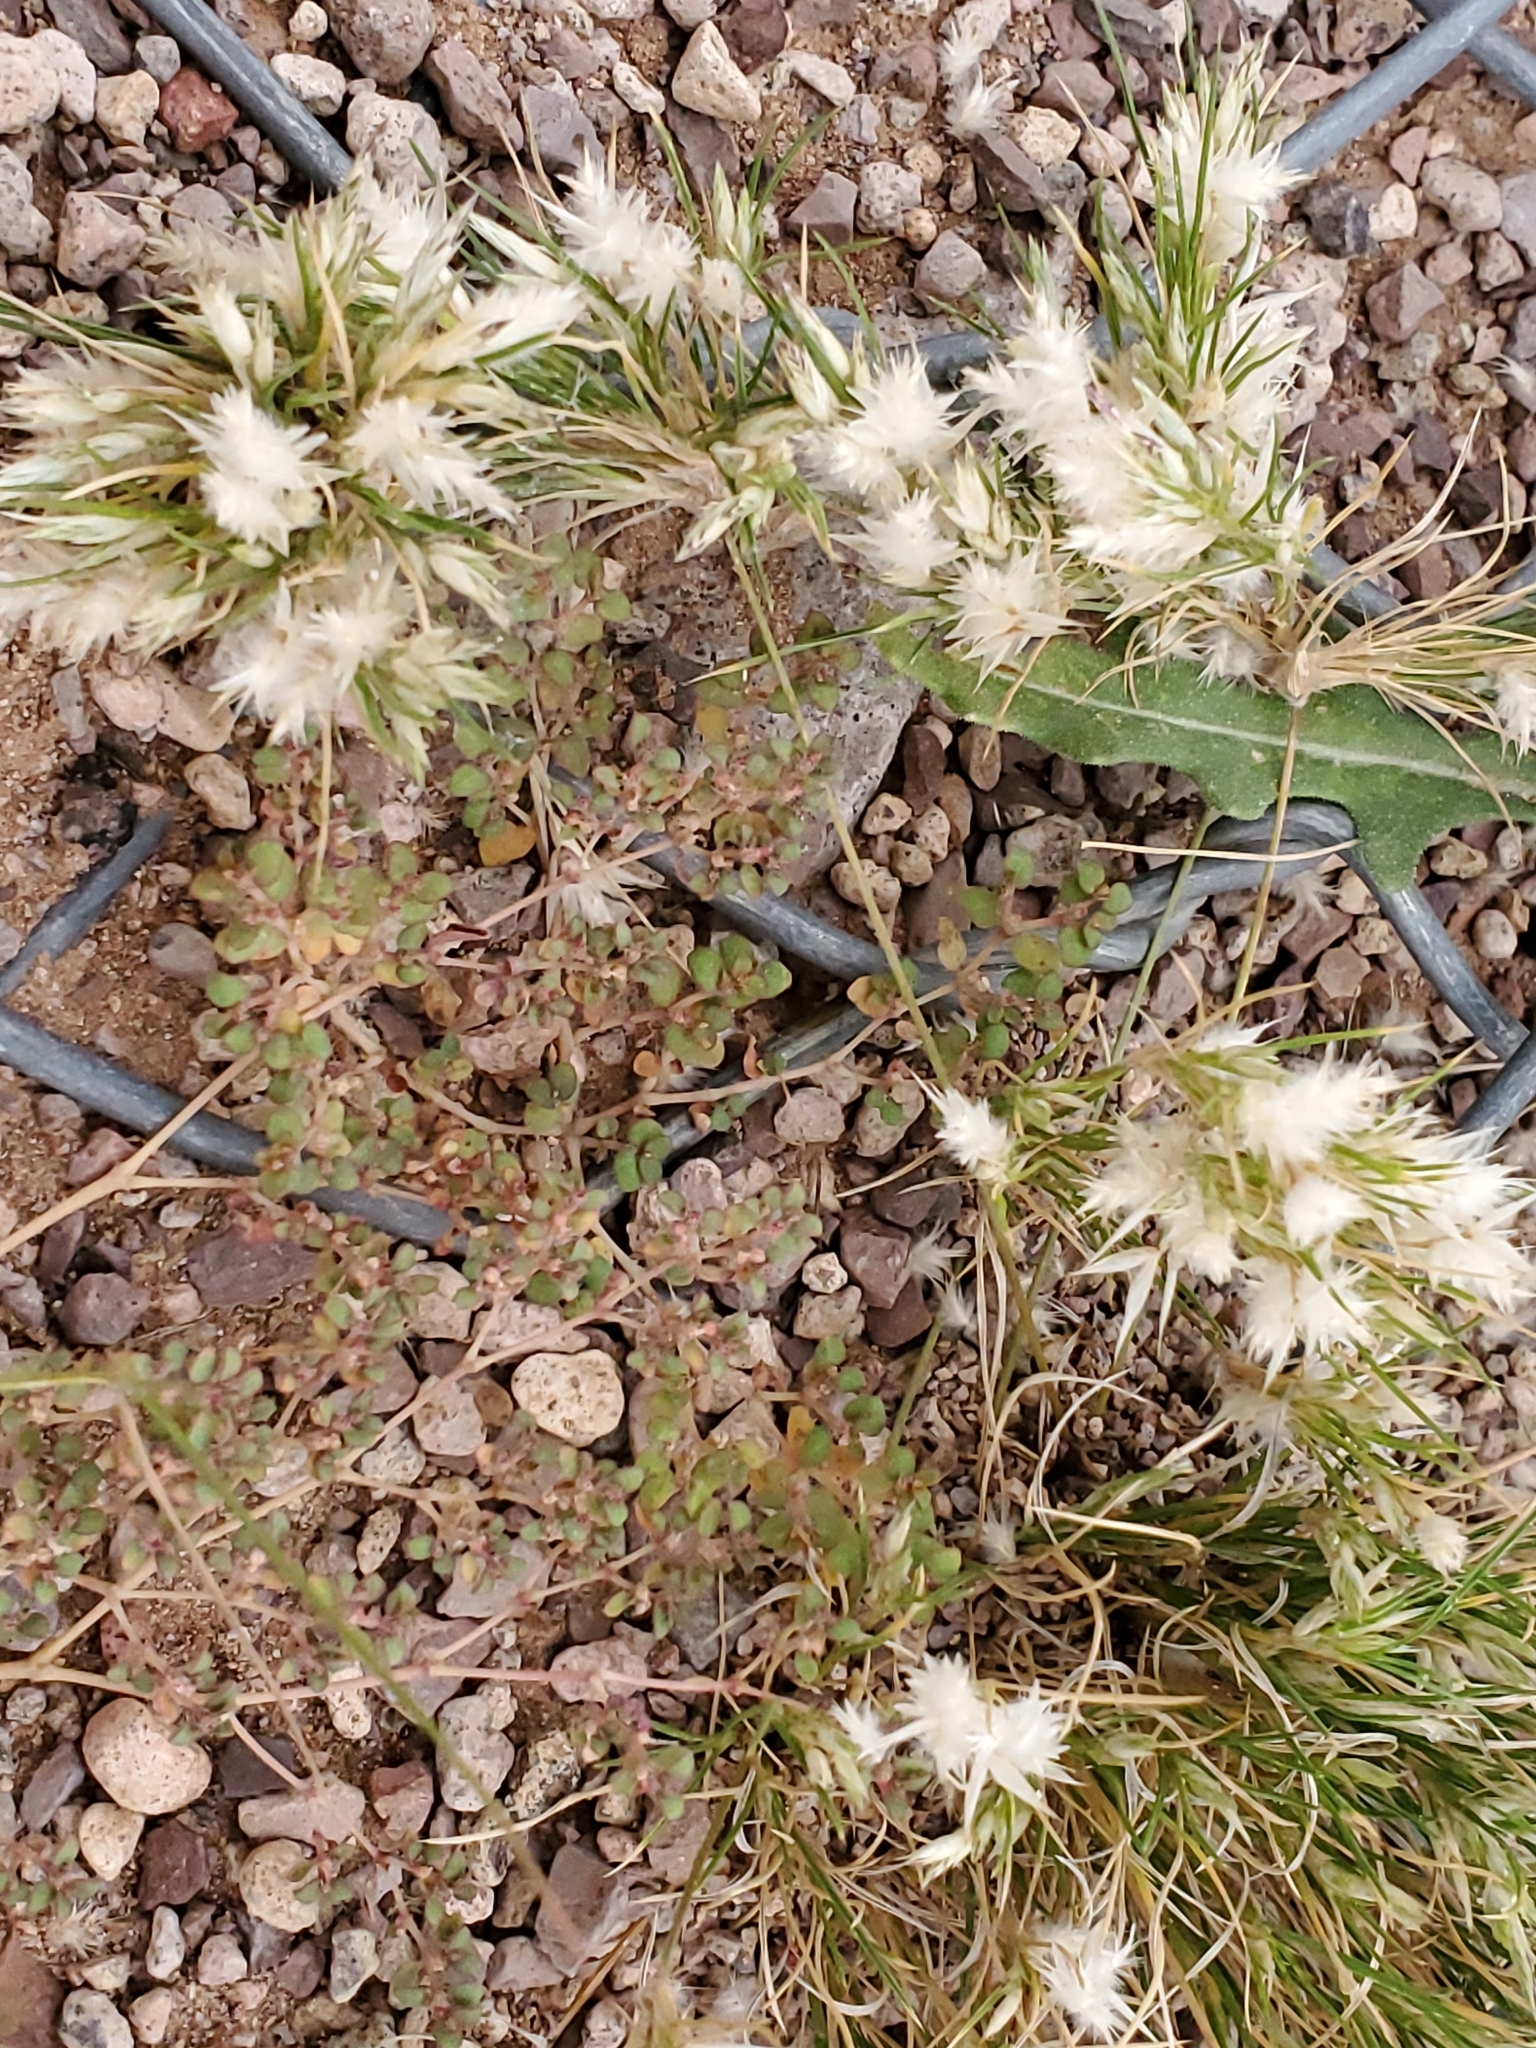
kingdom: Plantae
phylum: Tracheophyta
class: Liliopsida
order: Poales
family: Poaceae
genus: Dasyochloa
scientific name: Dasyochloa pulchella
